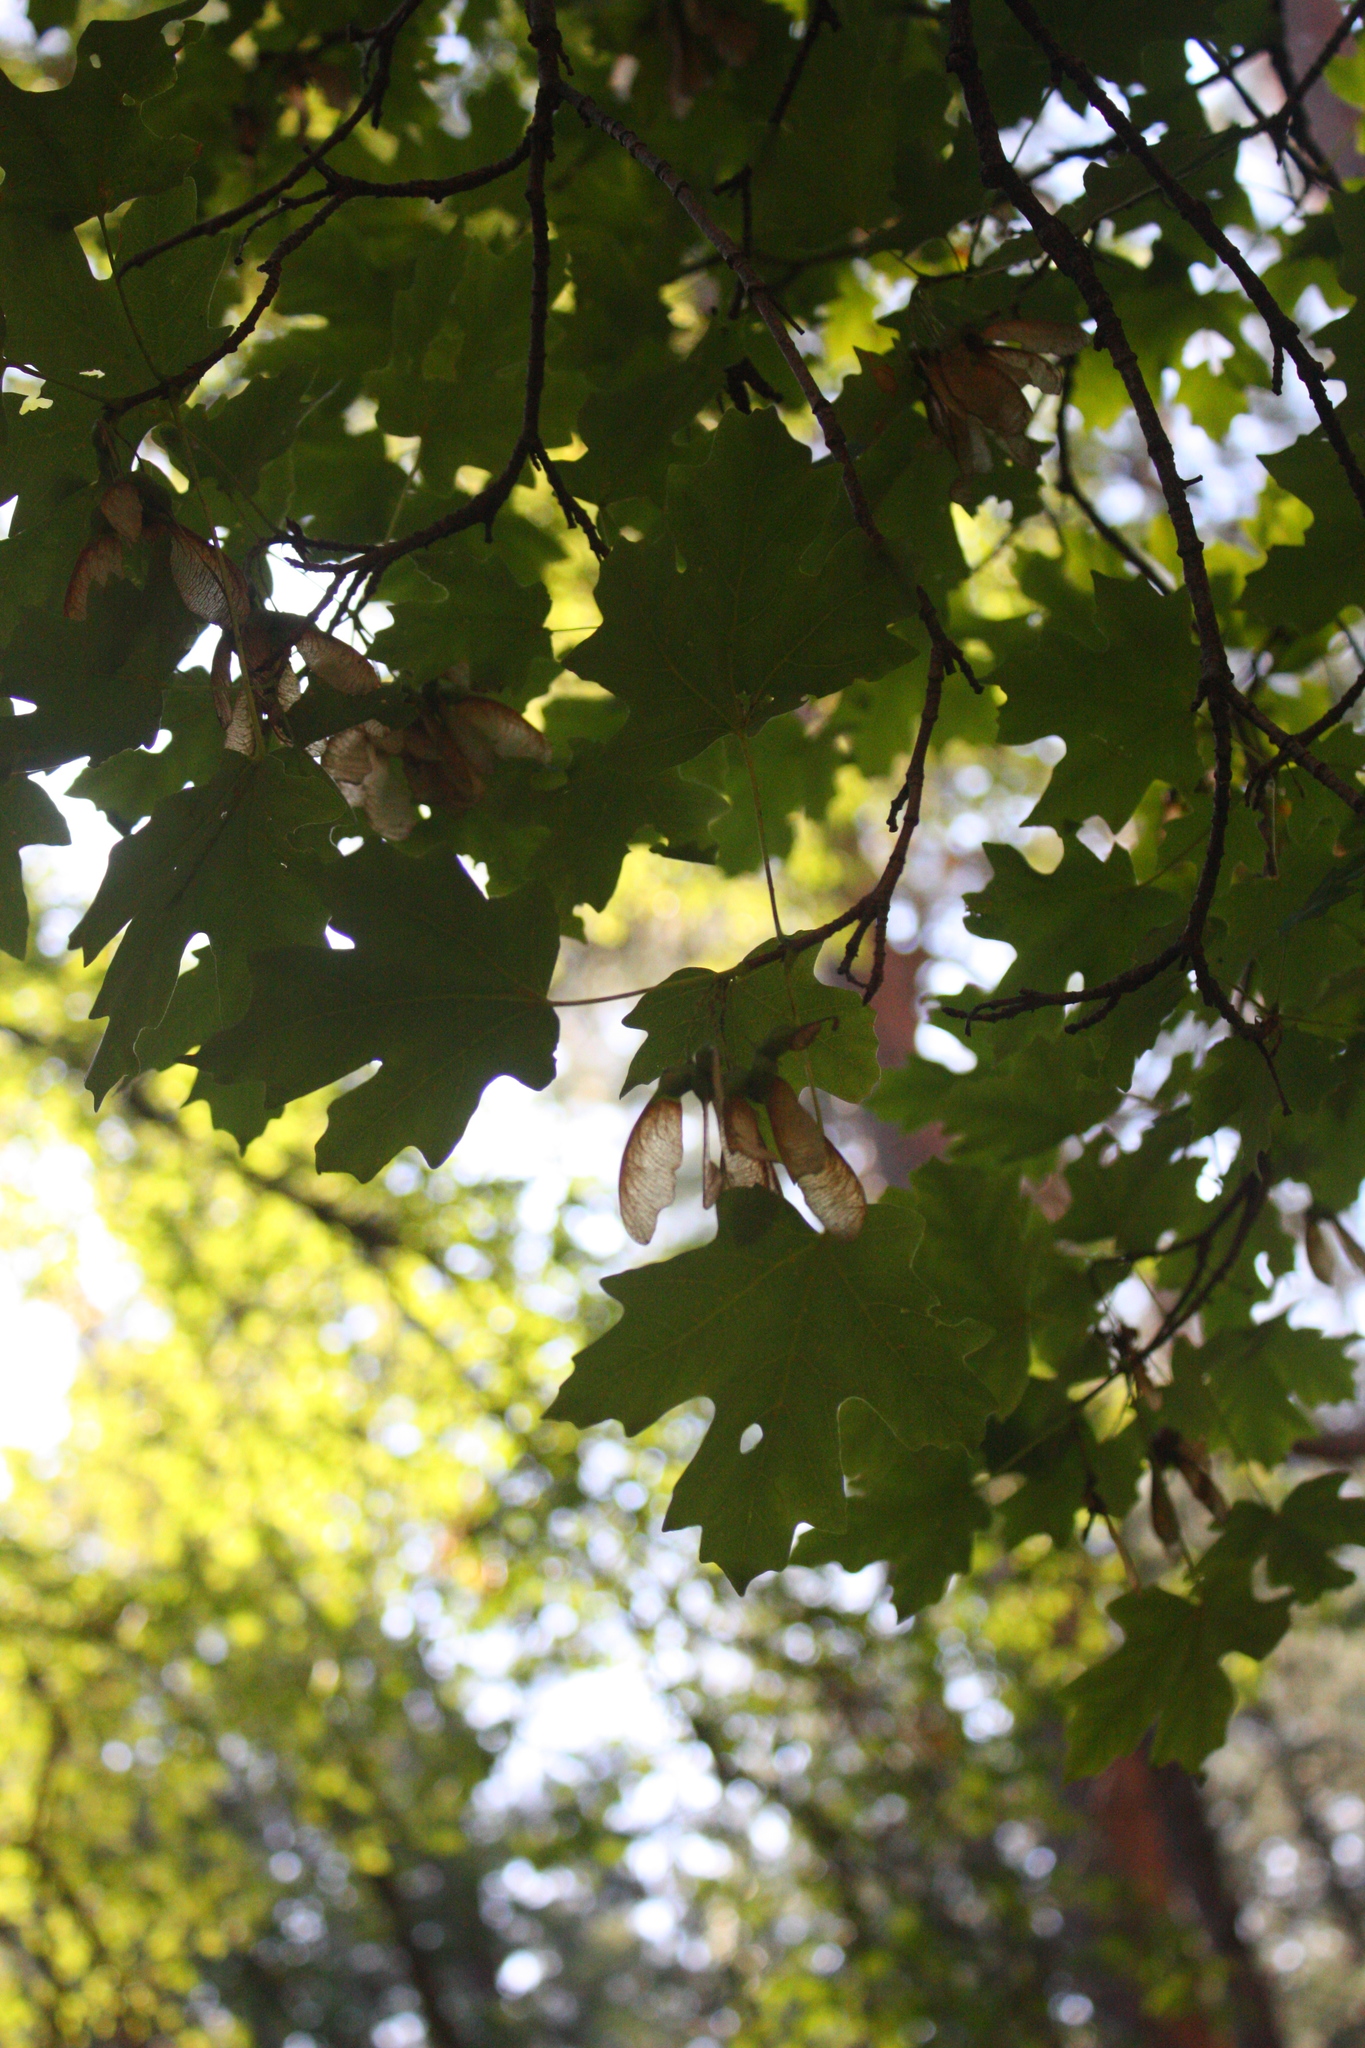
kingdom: Plantae
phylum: Tracheophyta
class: Magnoliopsida
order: Sapindales
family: Sapindaceae
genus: Acer
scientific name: Acer grandidentatum
